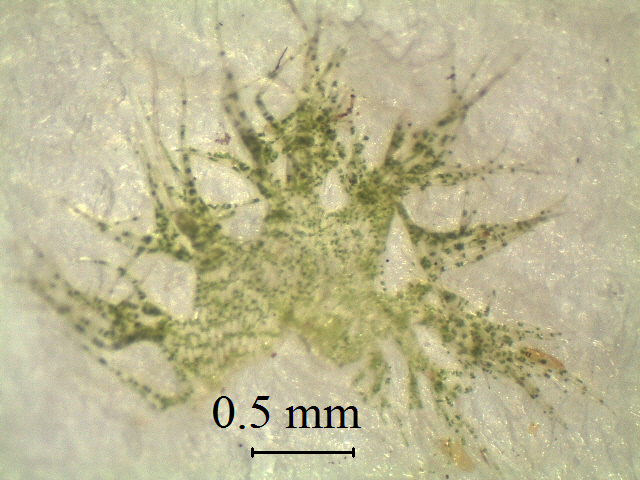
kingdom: Plantae
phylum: Marchantiophyta
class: Jungermanniopsida
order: Jungermanniales
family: Trichocoleaceae
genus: Leiomitra
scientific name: Leiomitra lanata
